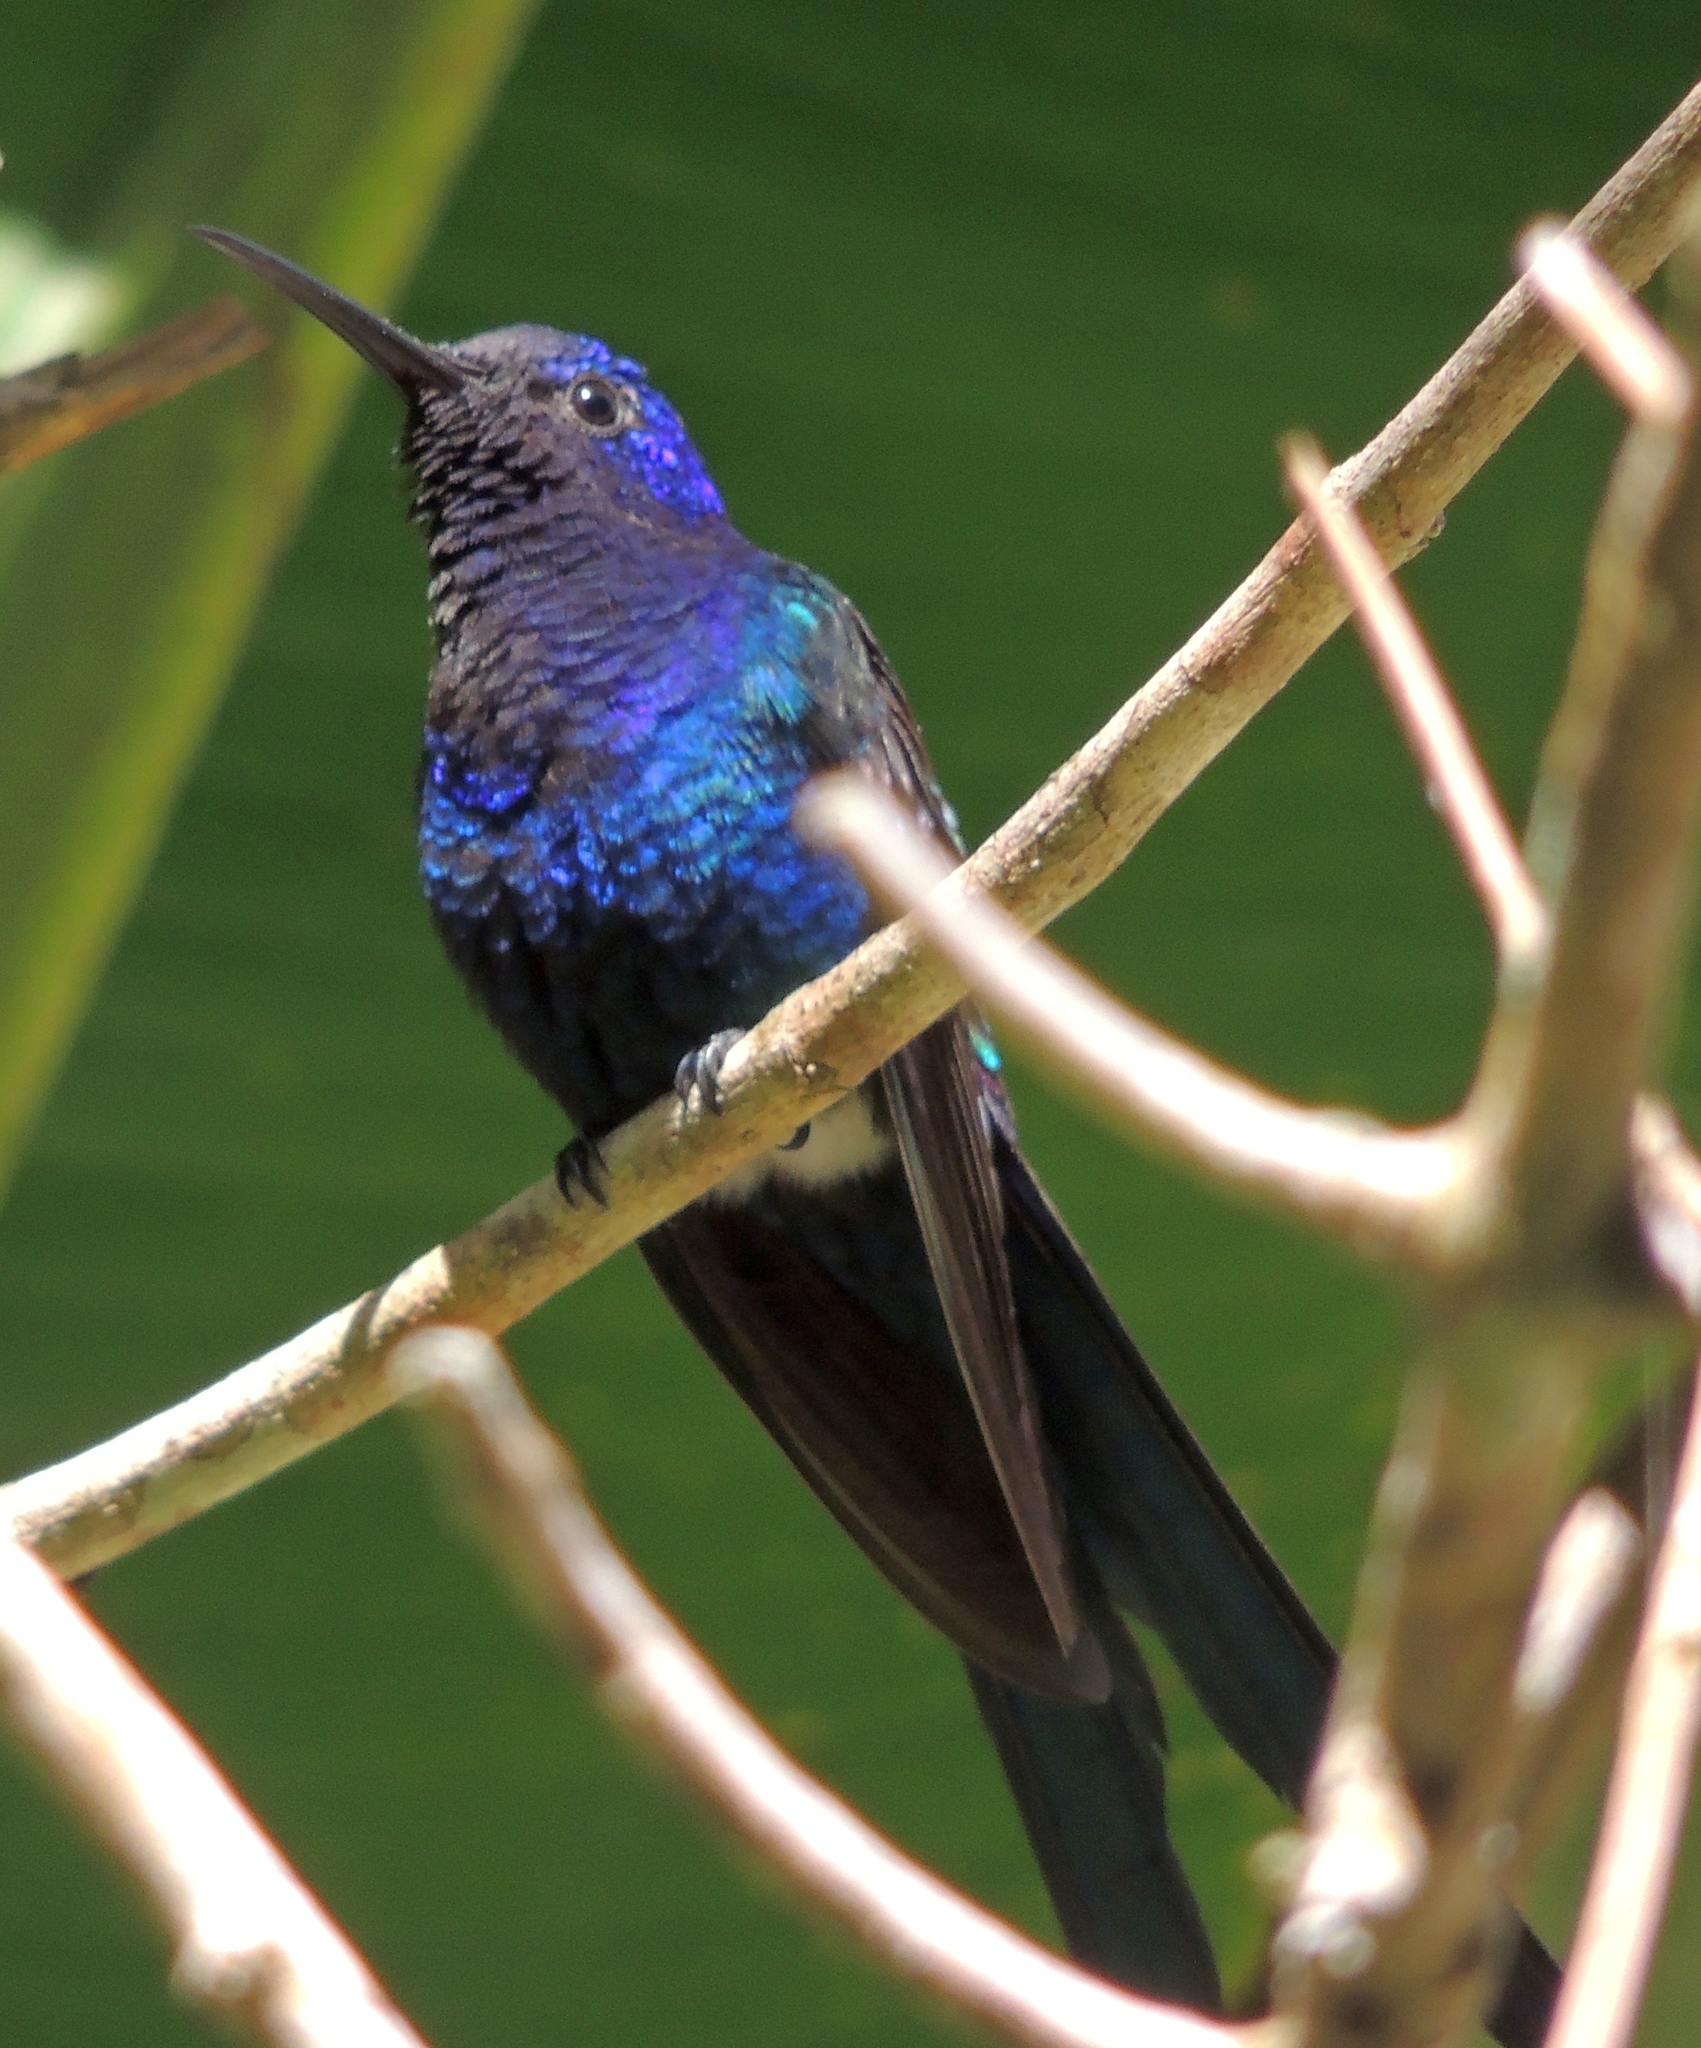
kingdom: Animalia
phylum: Chordata
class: Aves
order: Apodiformes
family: Trochilidae
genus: Eupetomena
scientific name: Eupetomena macroura
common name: Swallow-tailed hummingbird
